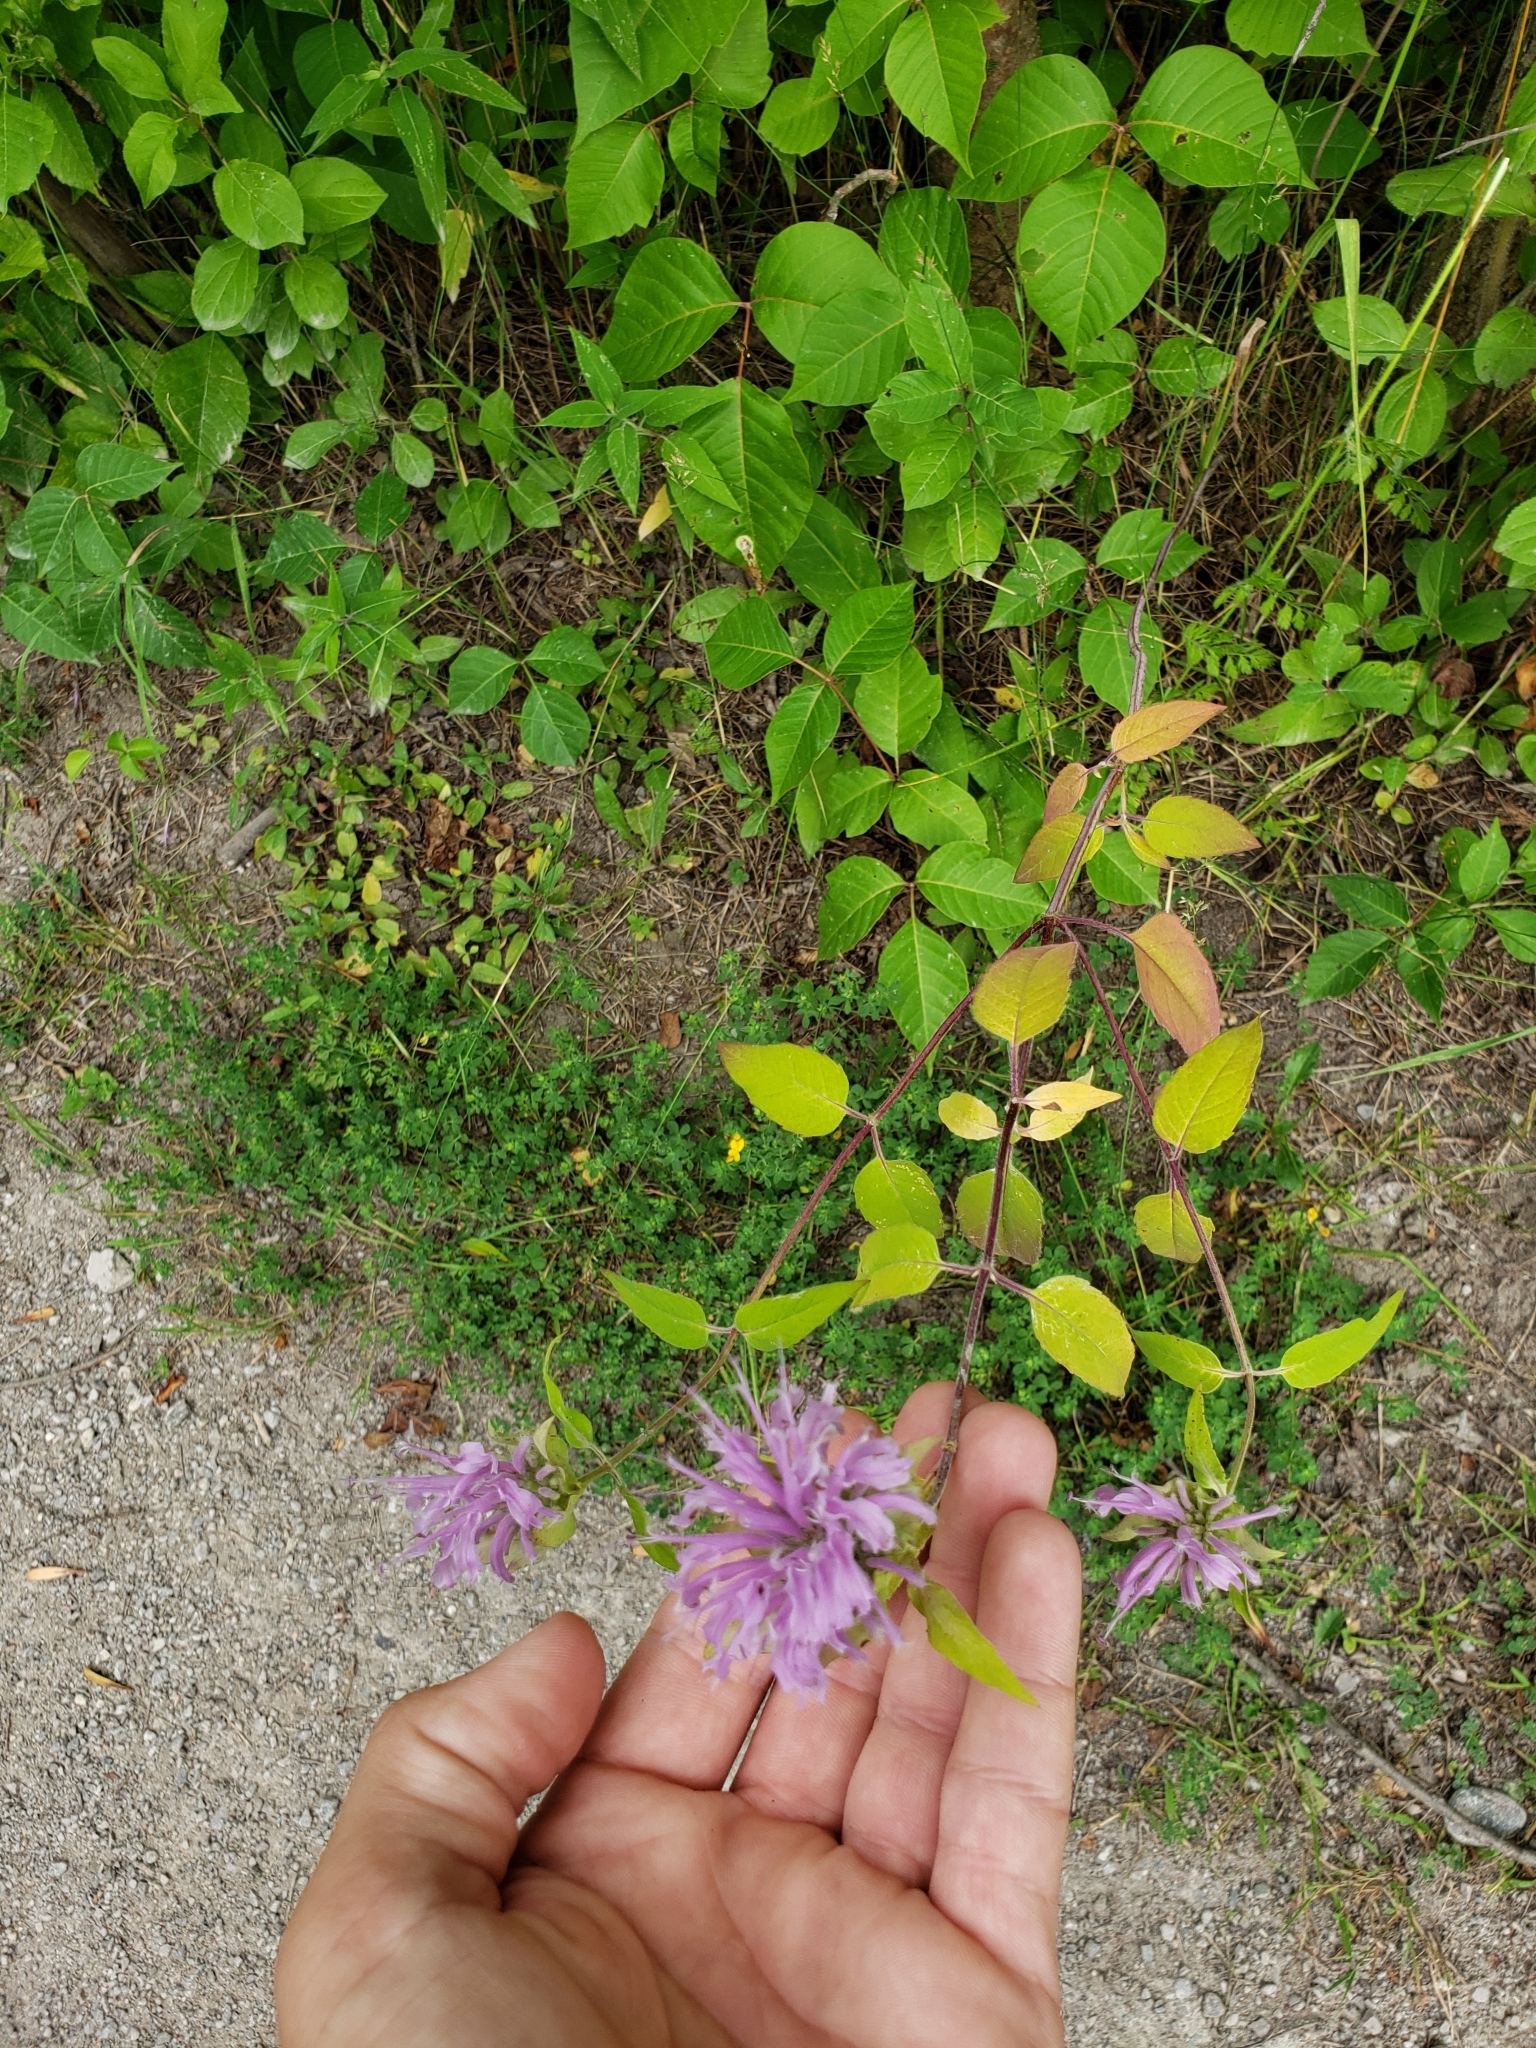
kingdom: Plantae
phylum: Tracheophyta
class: Magnoliopsida
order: Lamiales
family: Lamiaceae
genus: Monarda
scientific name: Monarda fistulosa
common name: Purple beebalm
